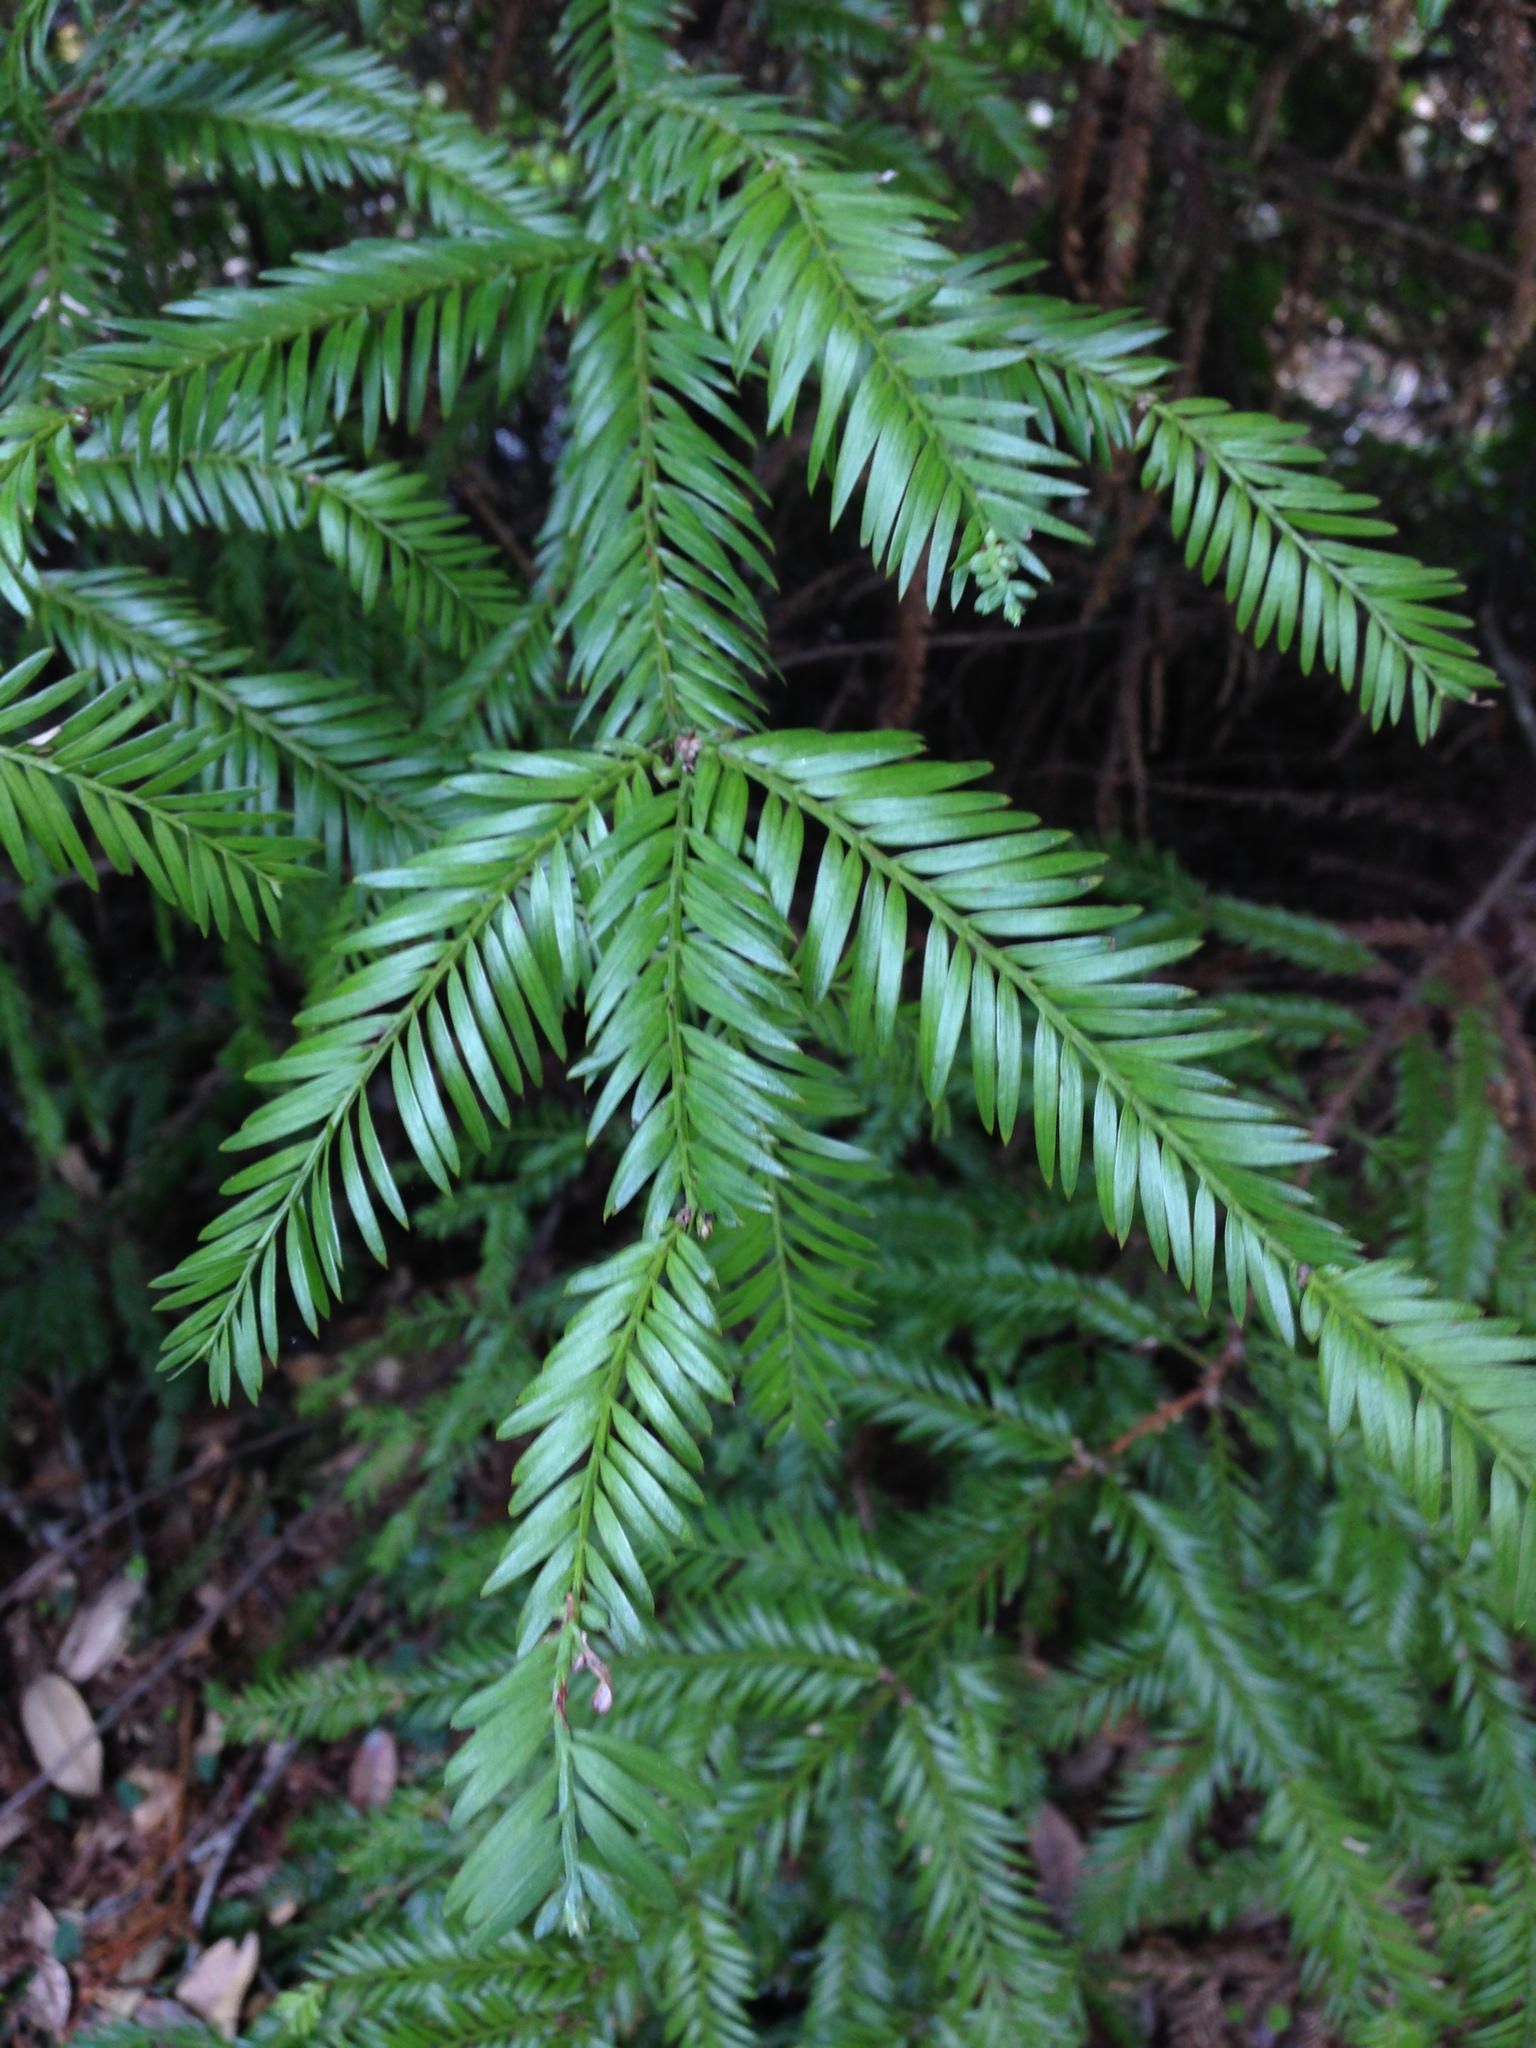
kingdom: Plantae
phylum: Tracheophyta
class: Pinopsida
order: Pinales
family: Cupressaceae
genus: Sequoia
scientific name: Sequoia sempervirens
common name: Coast redwood
